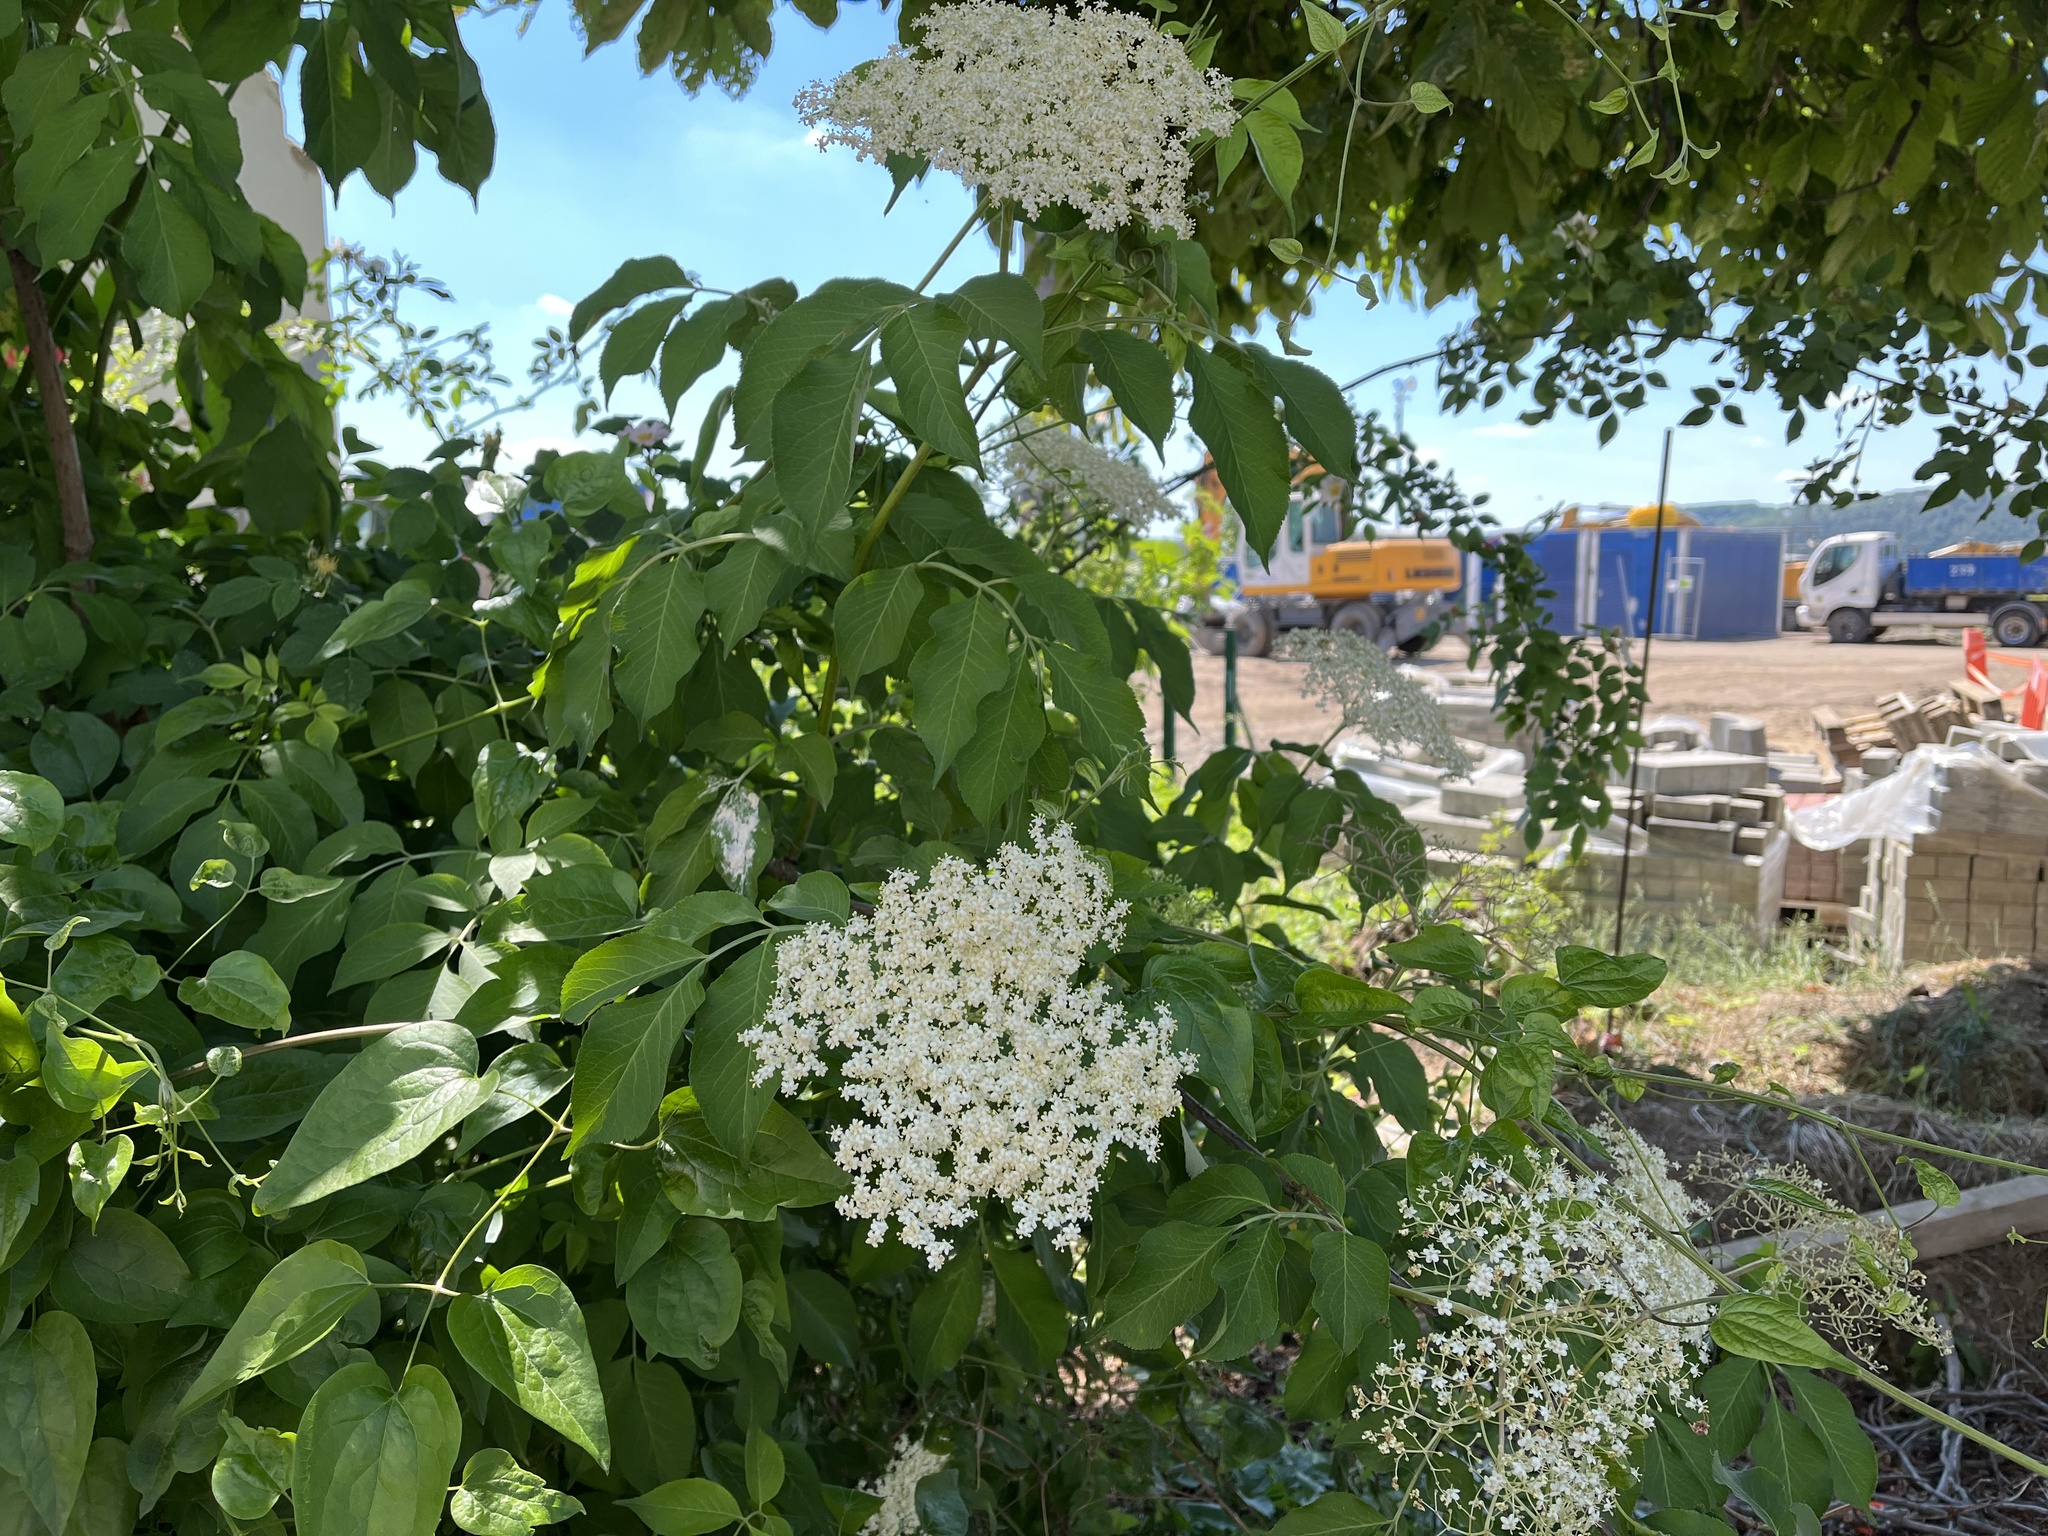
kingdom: Plantae
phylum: Tracheophyta
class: Magnoliopsida
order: Dipsacales
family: Viburnaceae
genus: Sambucus
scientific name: Sambucus nigra
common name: Elder
